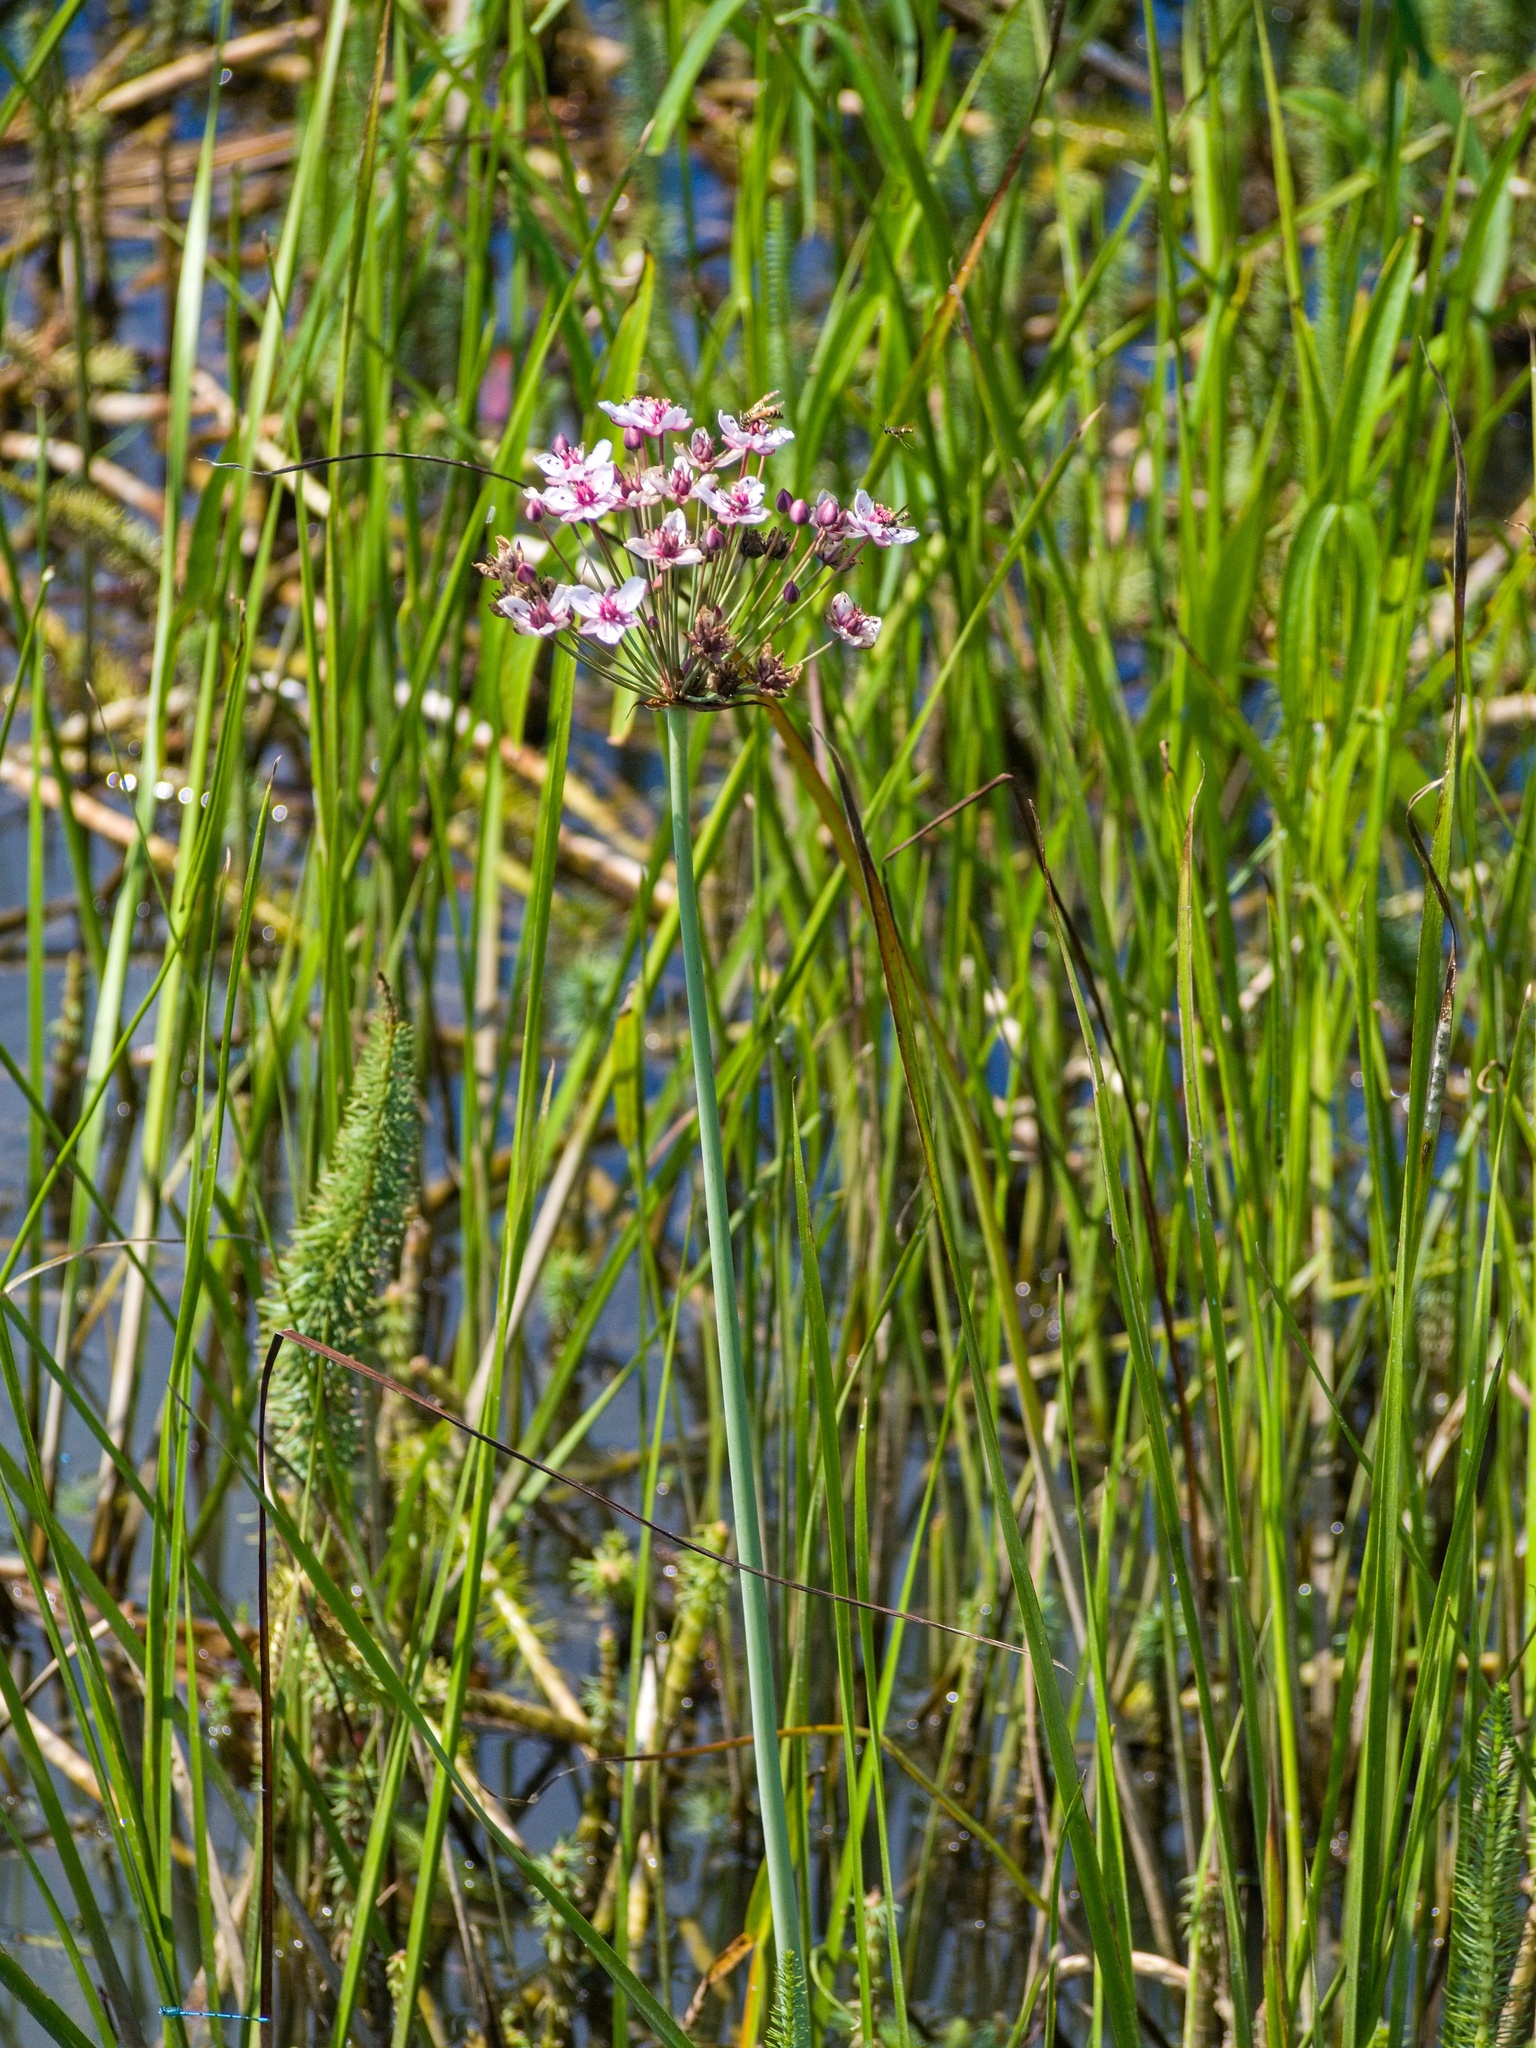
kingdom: Plantae
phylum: Tracheophyta
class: Liliopsida
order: Alismatales
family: Butomaceae
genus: Butomus
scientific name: Butomus umbellatus
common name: Flowering-rush
